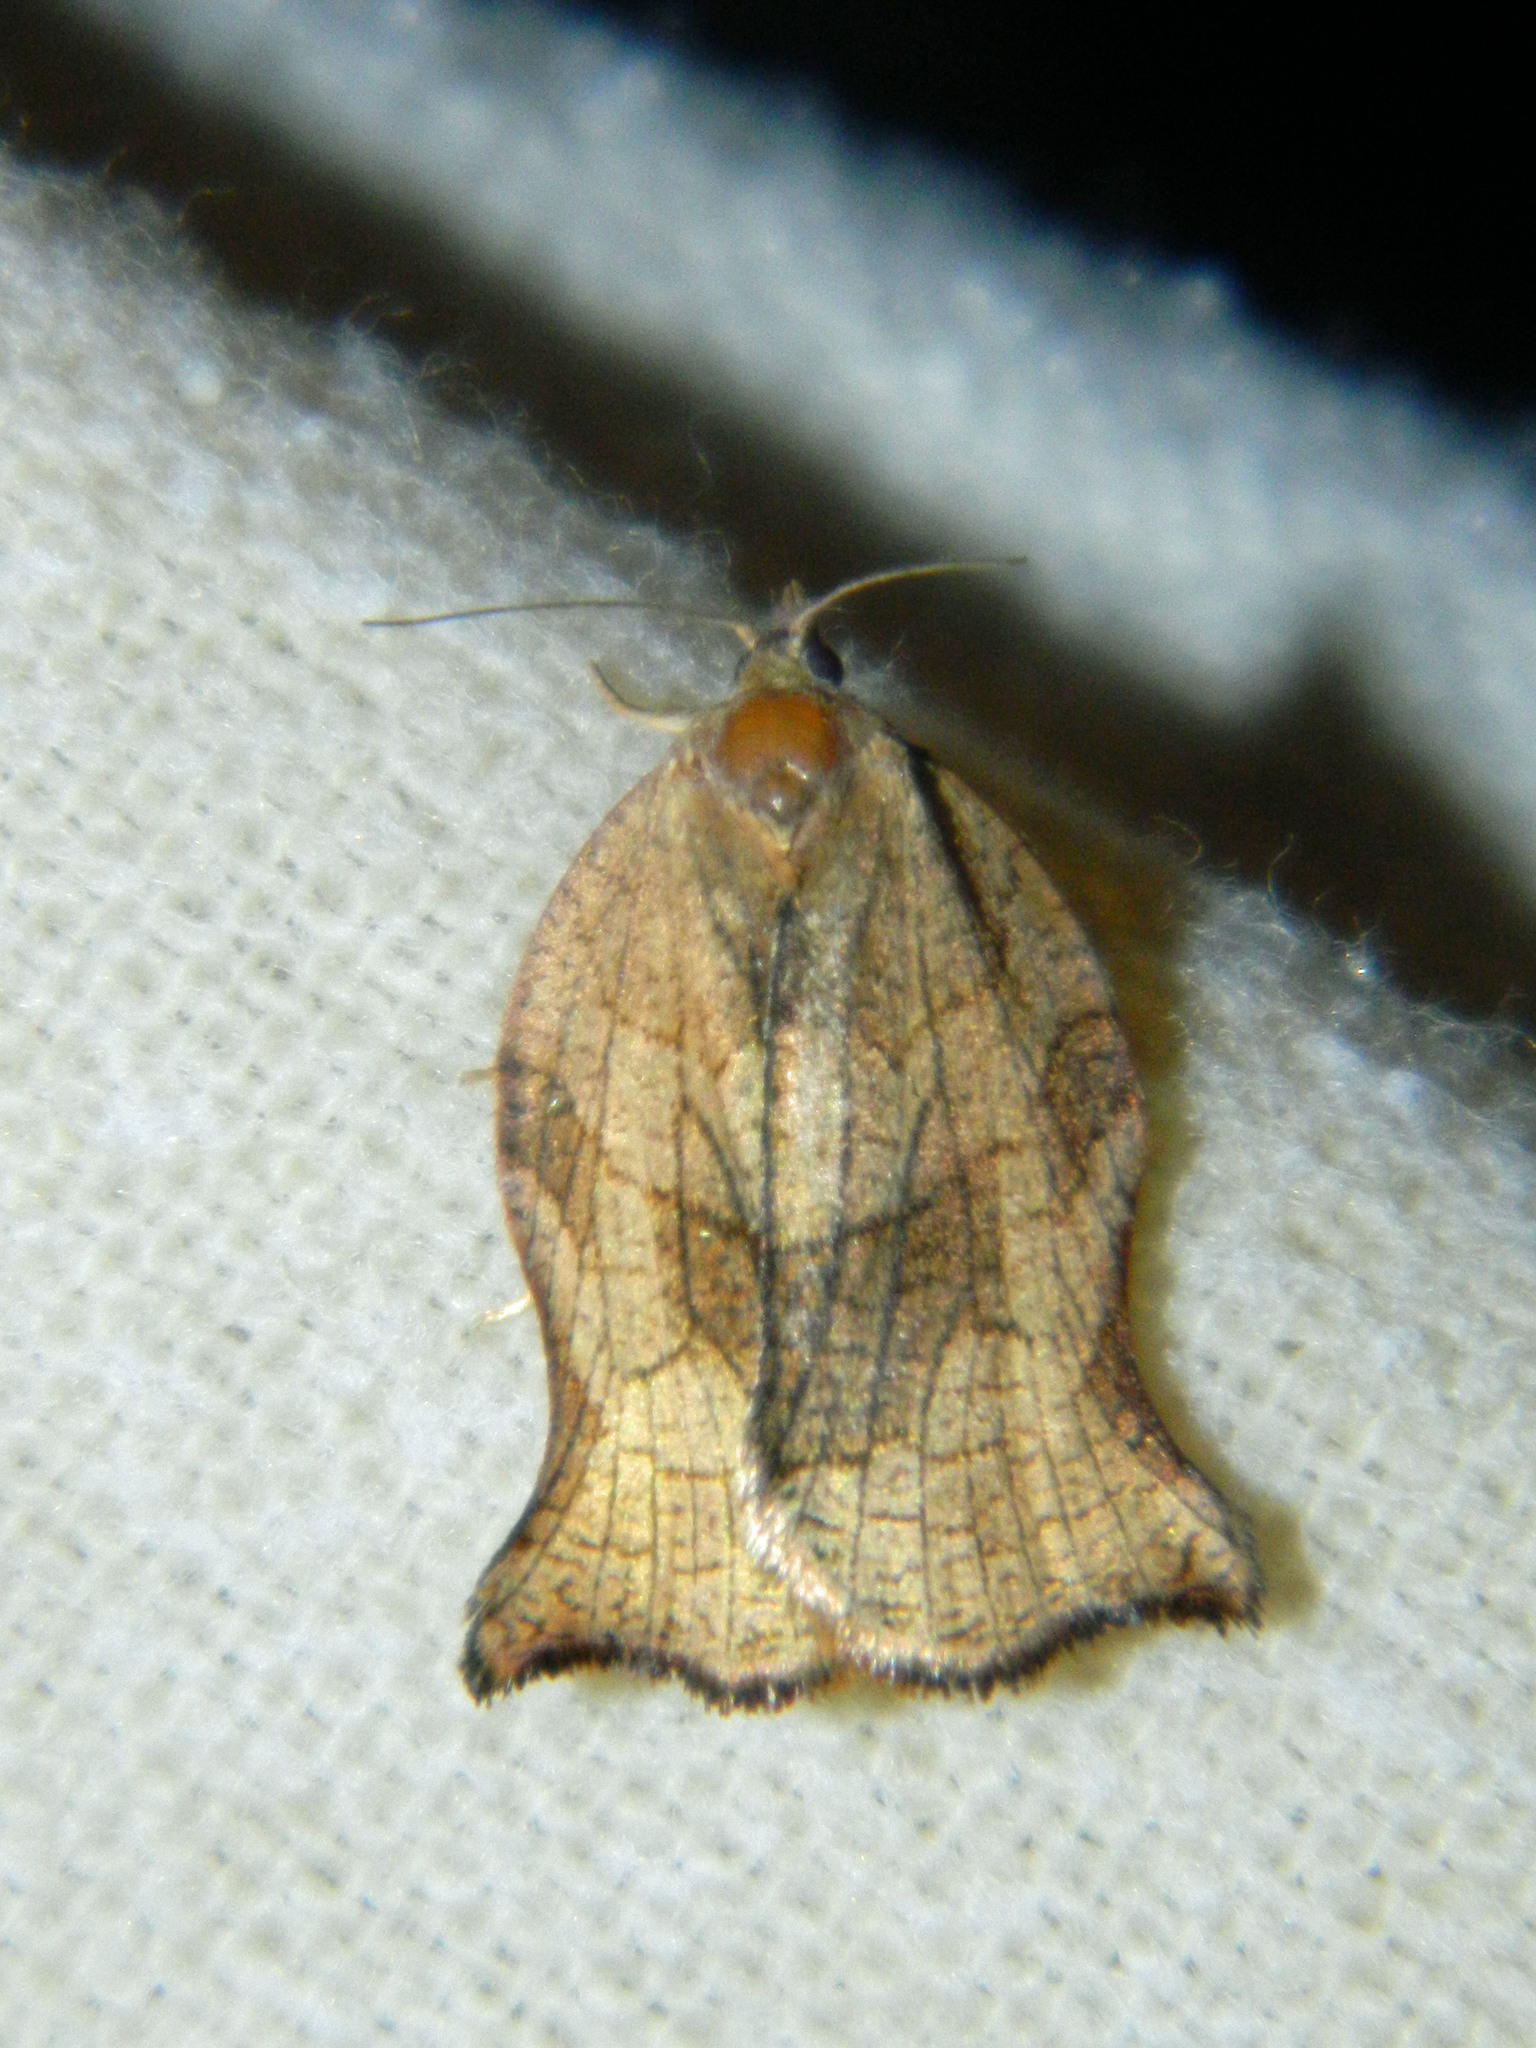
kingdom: Animalia
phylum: Arthropoda
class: Insecta
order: Lepidoptera
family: Tortricidae
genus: Archips
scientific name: Archips purpurana
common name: Omnivorous leafroller
